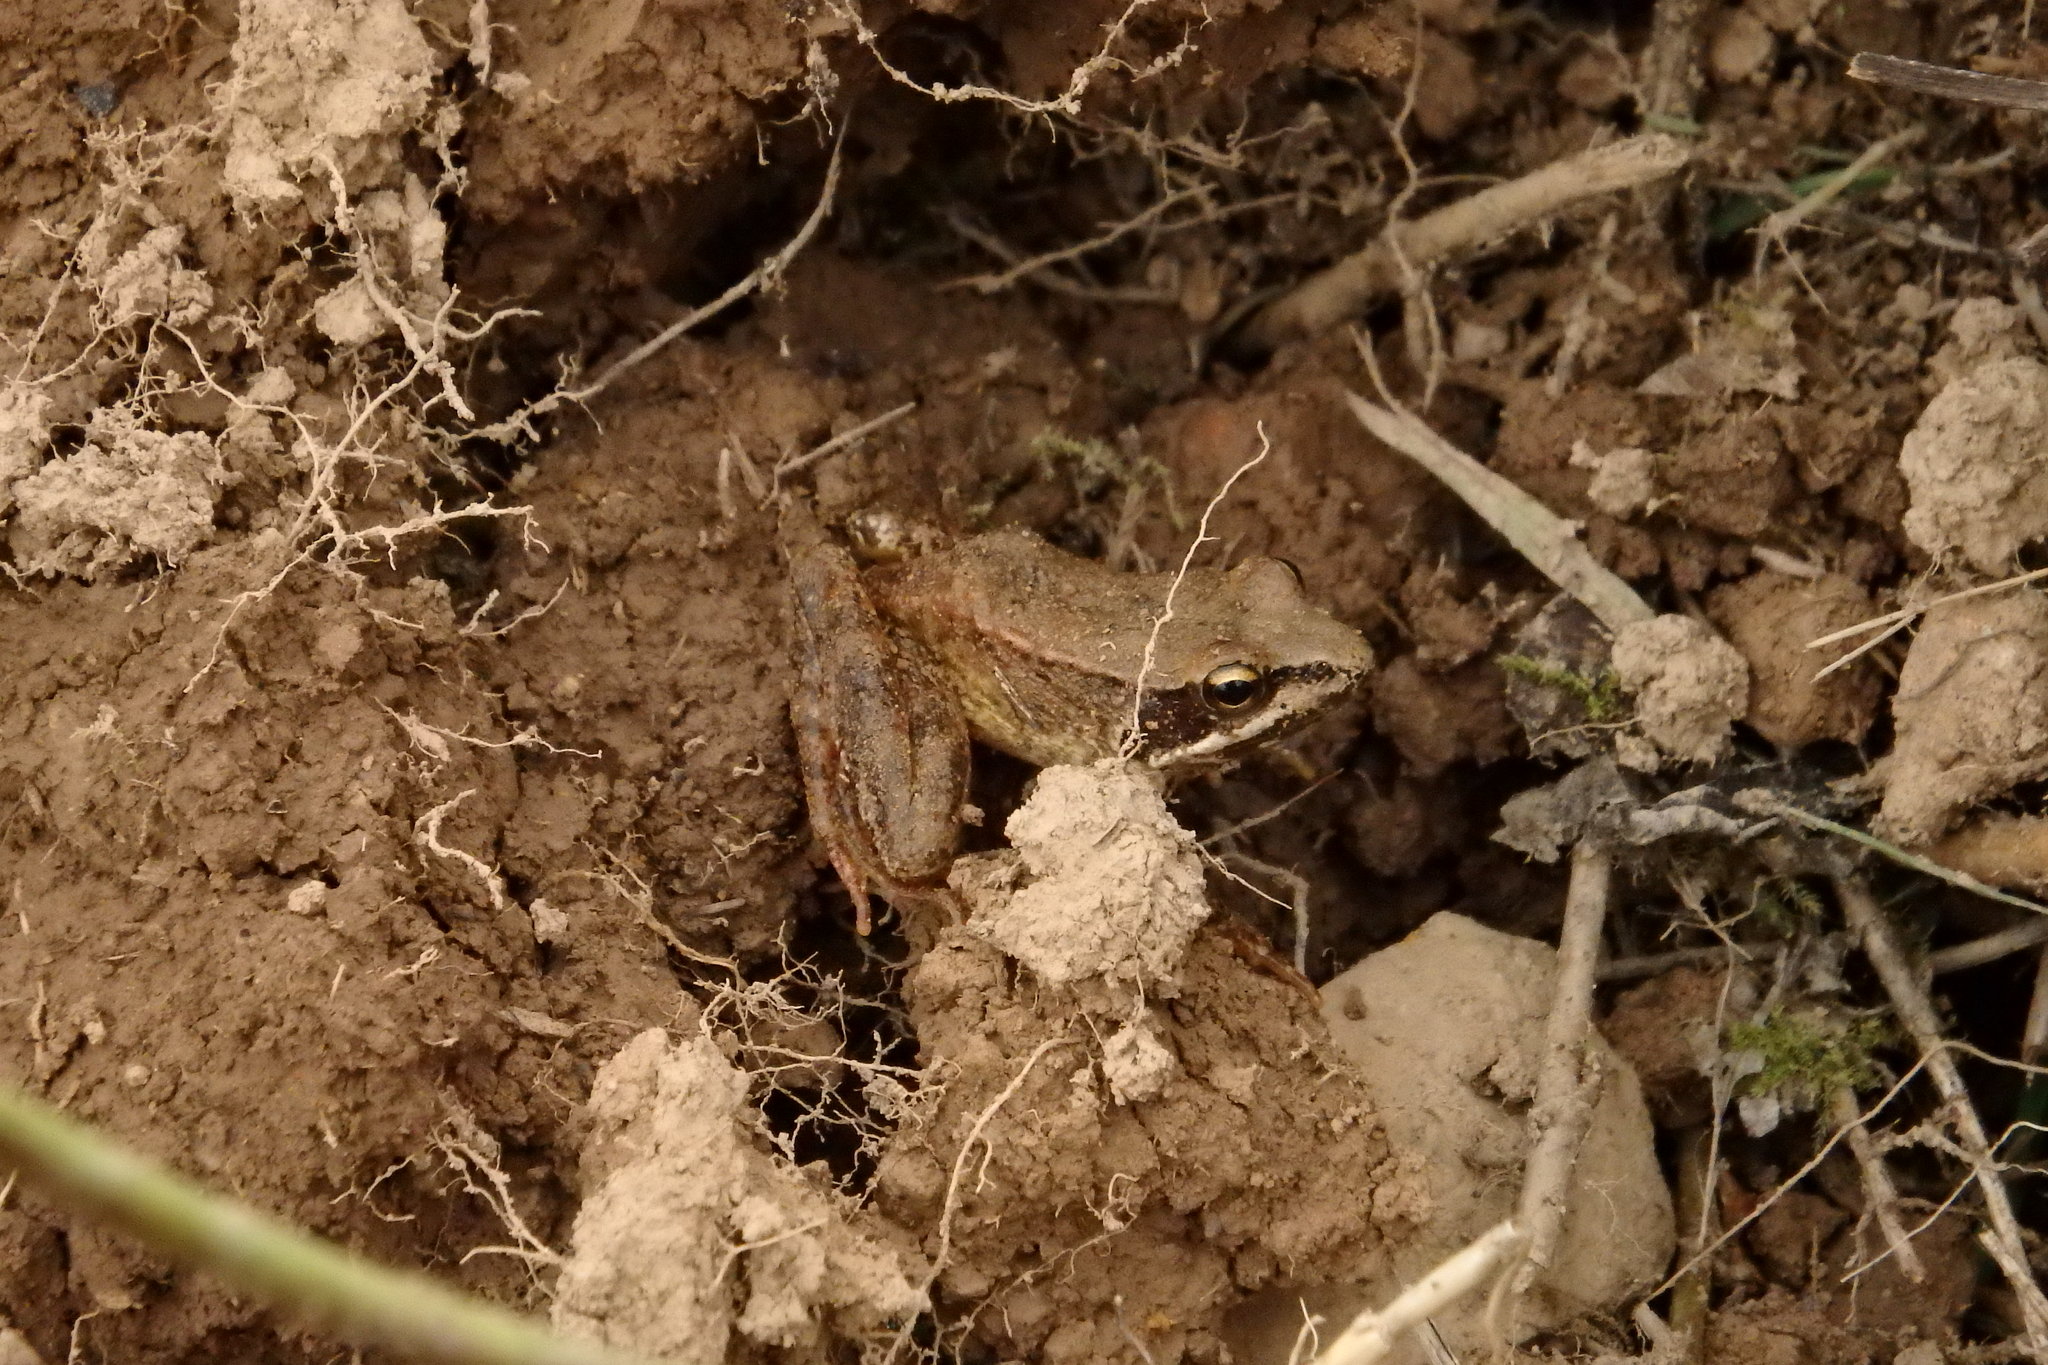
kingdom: Animalia
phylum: Chordata
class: Amphibia
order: Anura
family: Ranidae
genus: Rana
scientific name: Rana iberica
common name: Iberian frog
